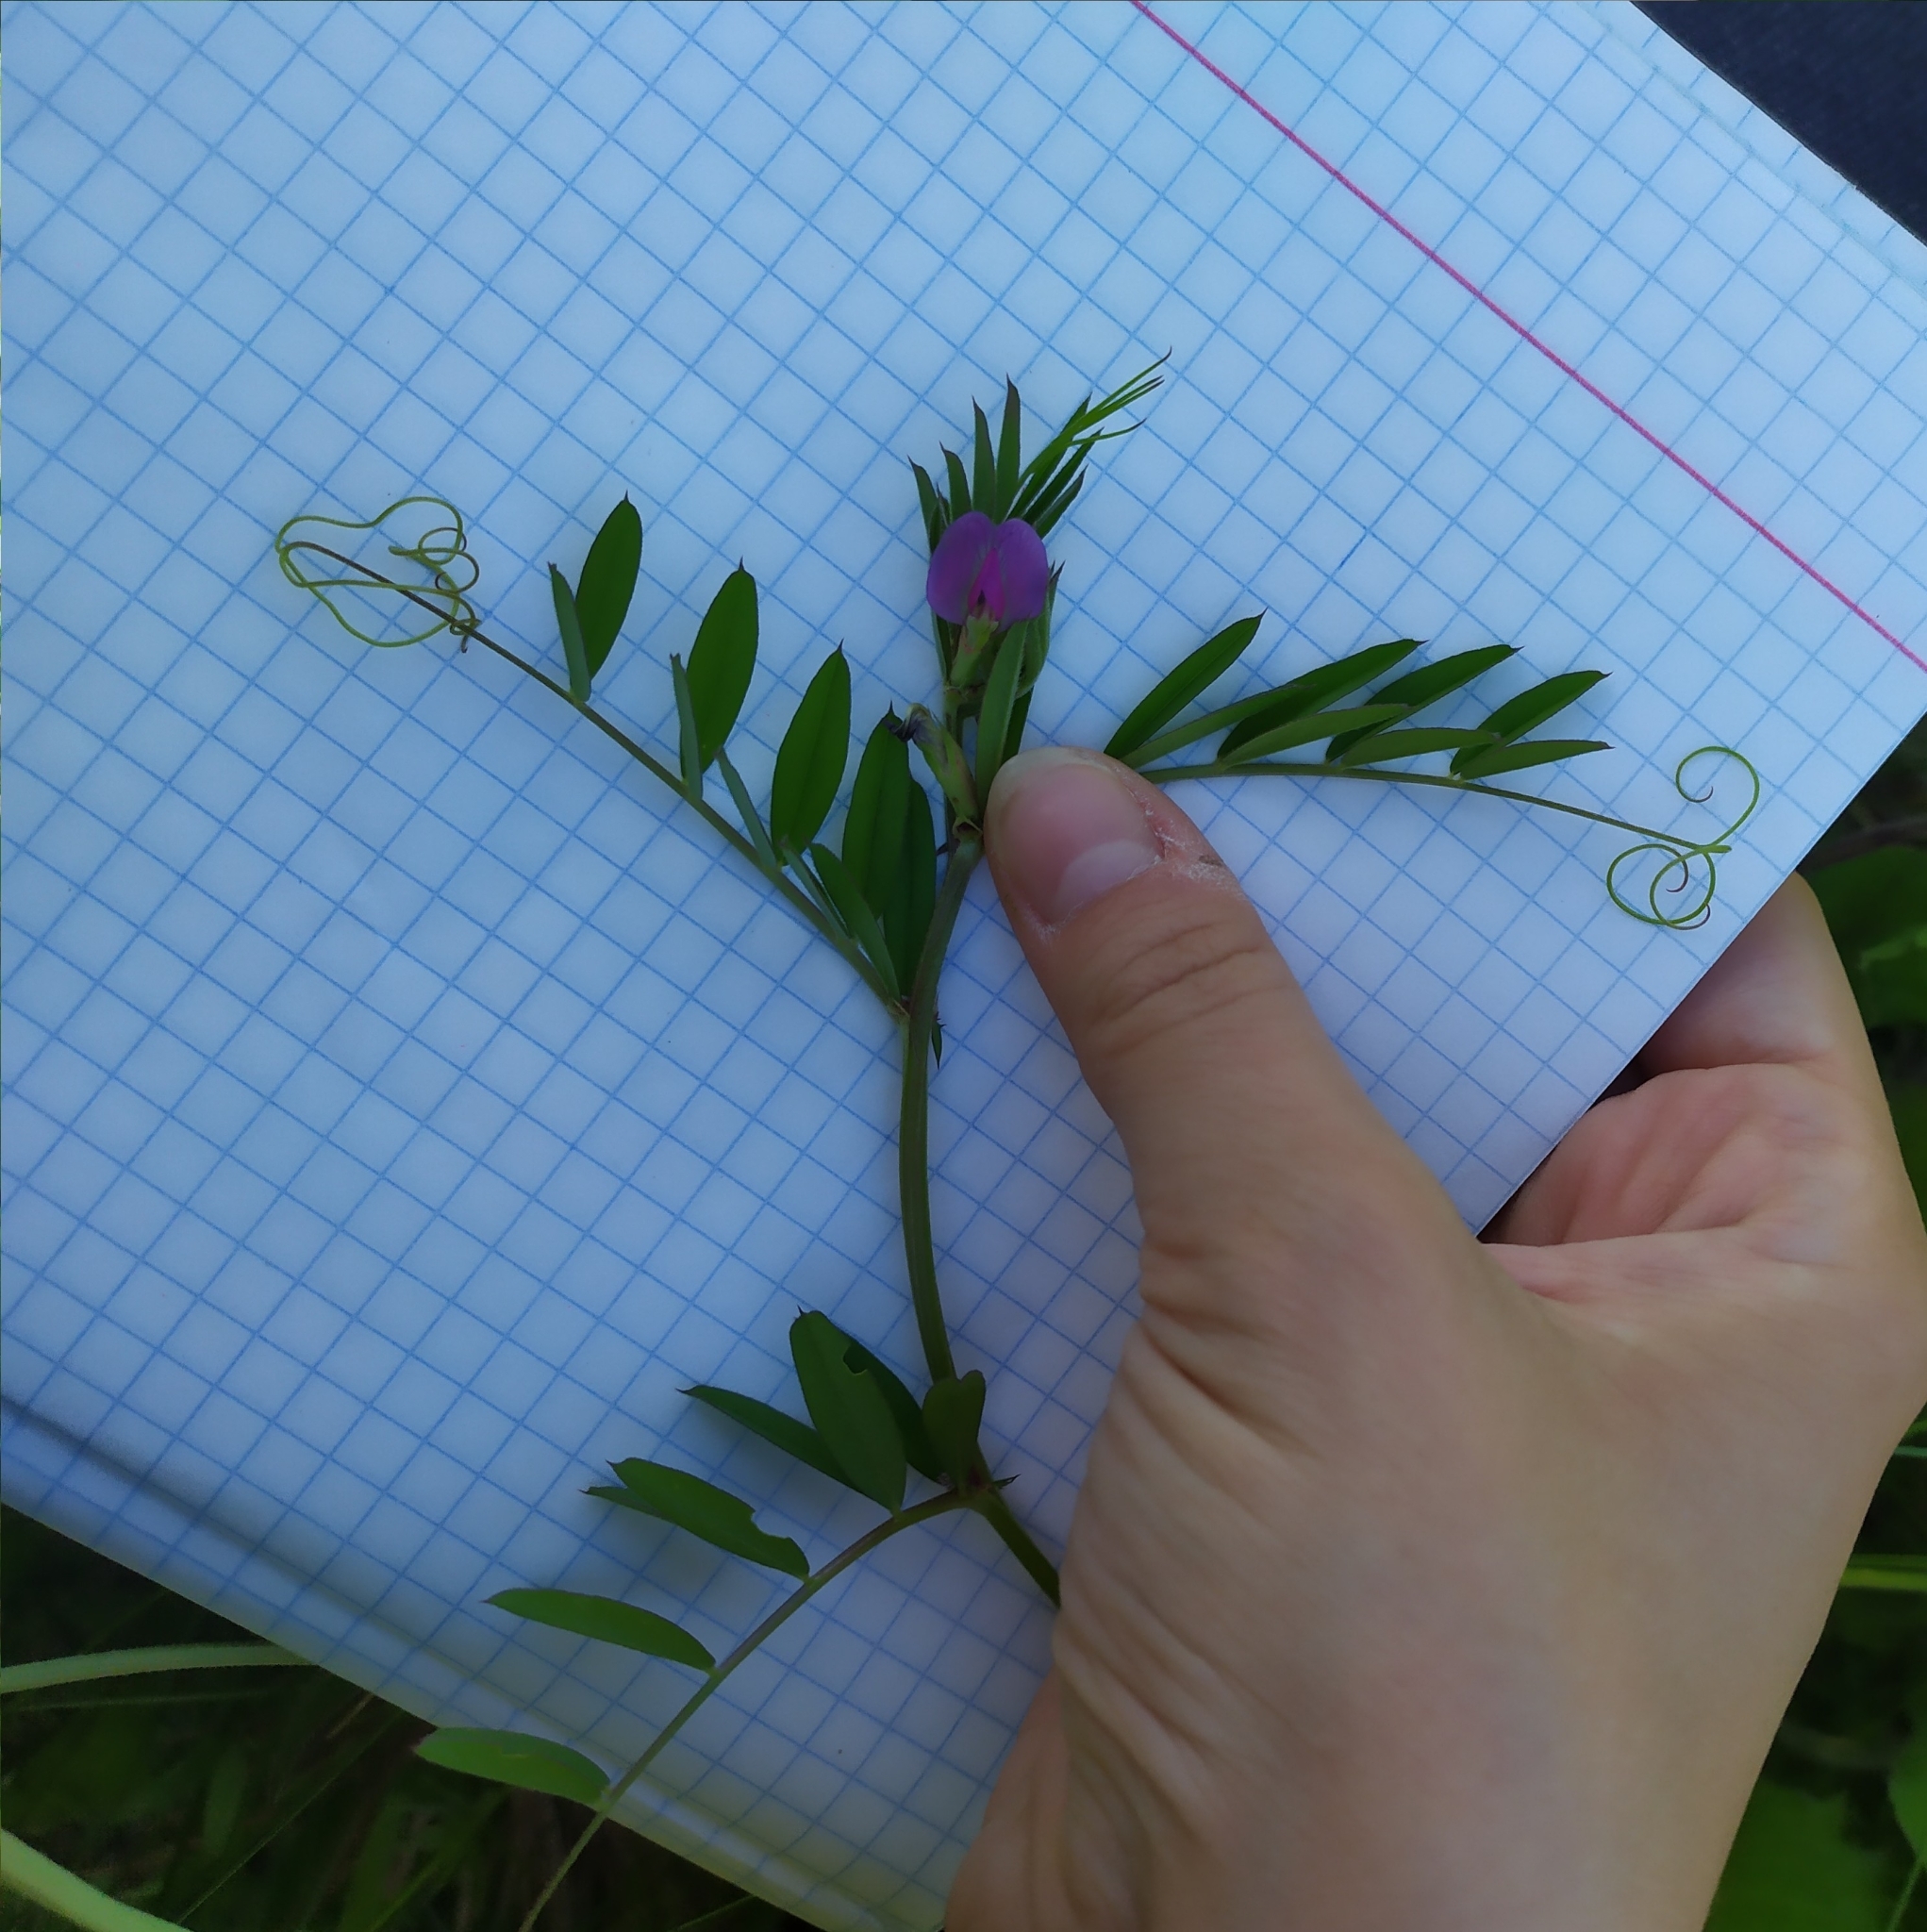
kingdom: Plantae
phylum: Tracheophyta
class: Magnoliopsida
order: Fabales
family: Fabaceae
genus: Vicia
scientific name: Vicia sativa
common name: Garden vetch
